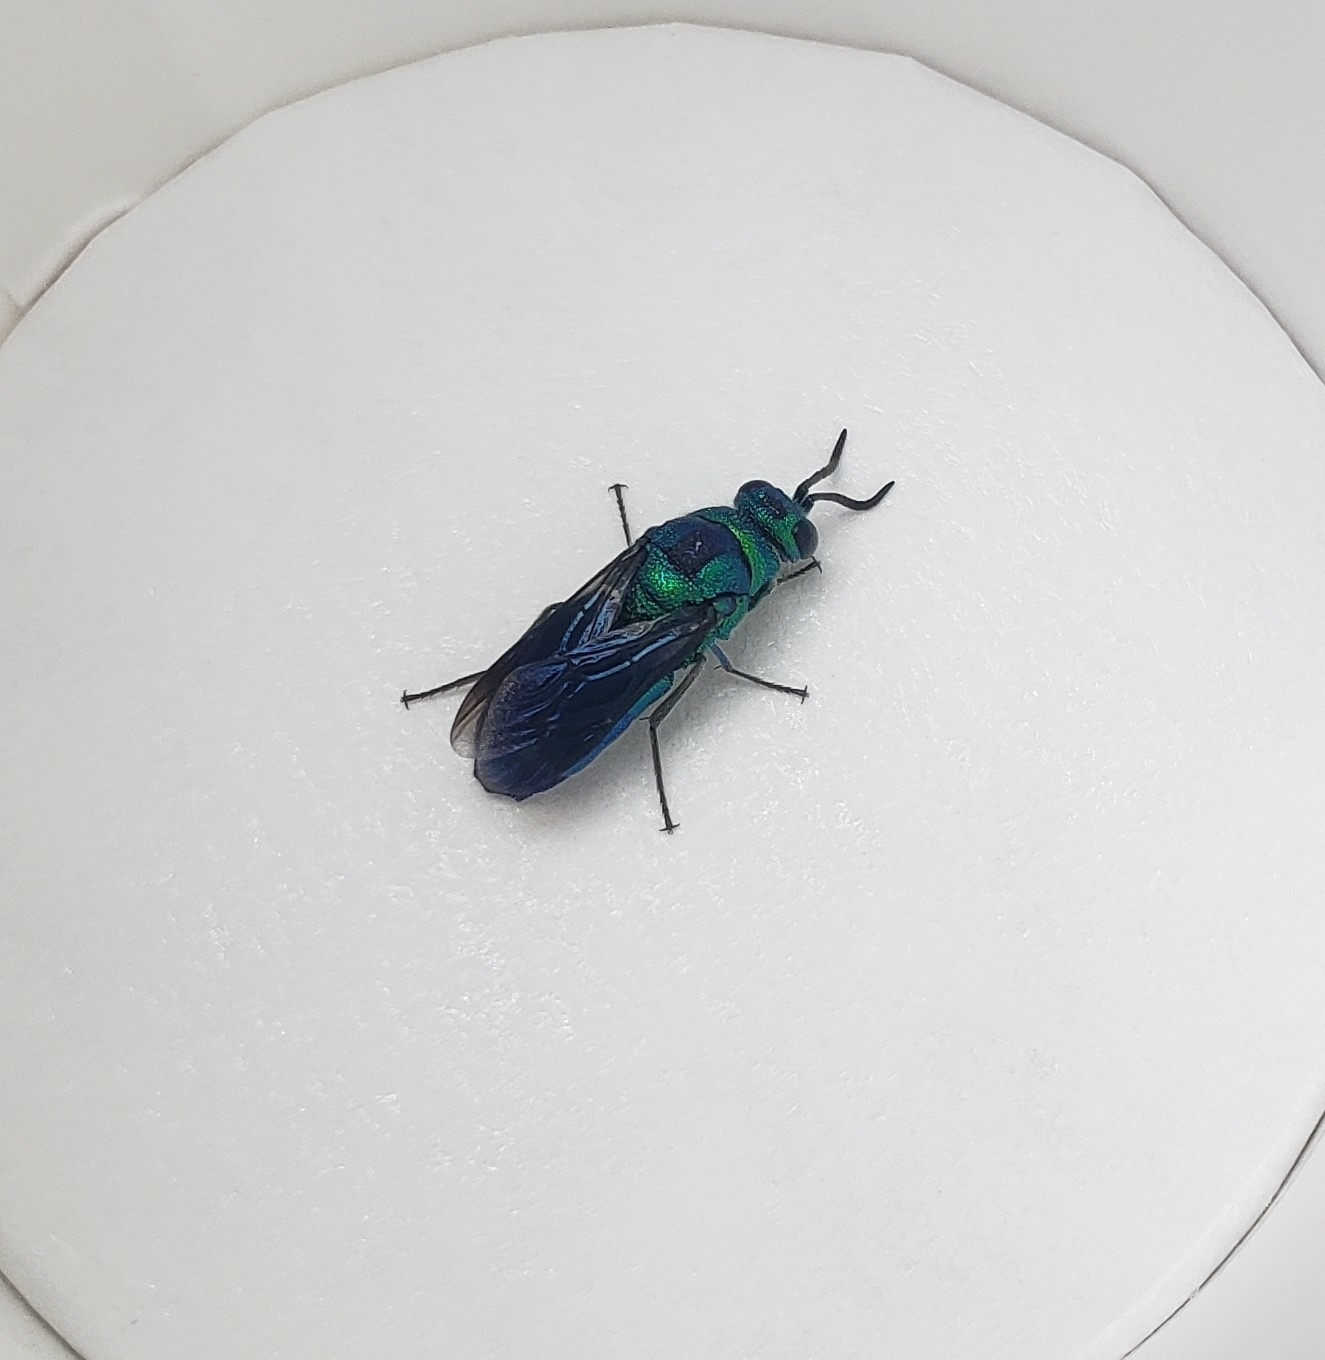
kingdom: Animalia
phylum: Arthropoda
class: Insecta
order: Hymenoptera
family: Chrysididae
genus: Chrysis
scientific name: Chrysis angolensis
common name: Cuckoo wasp
